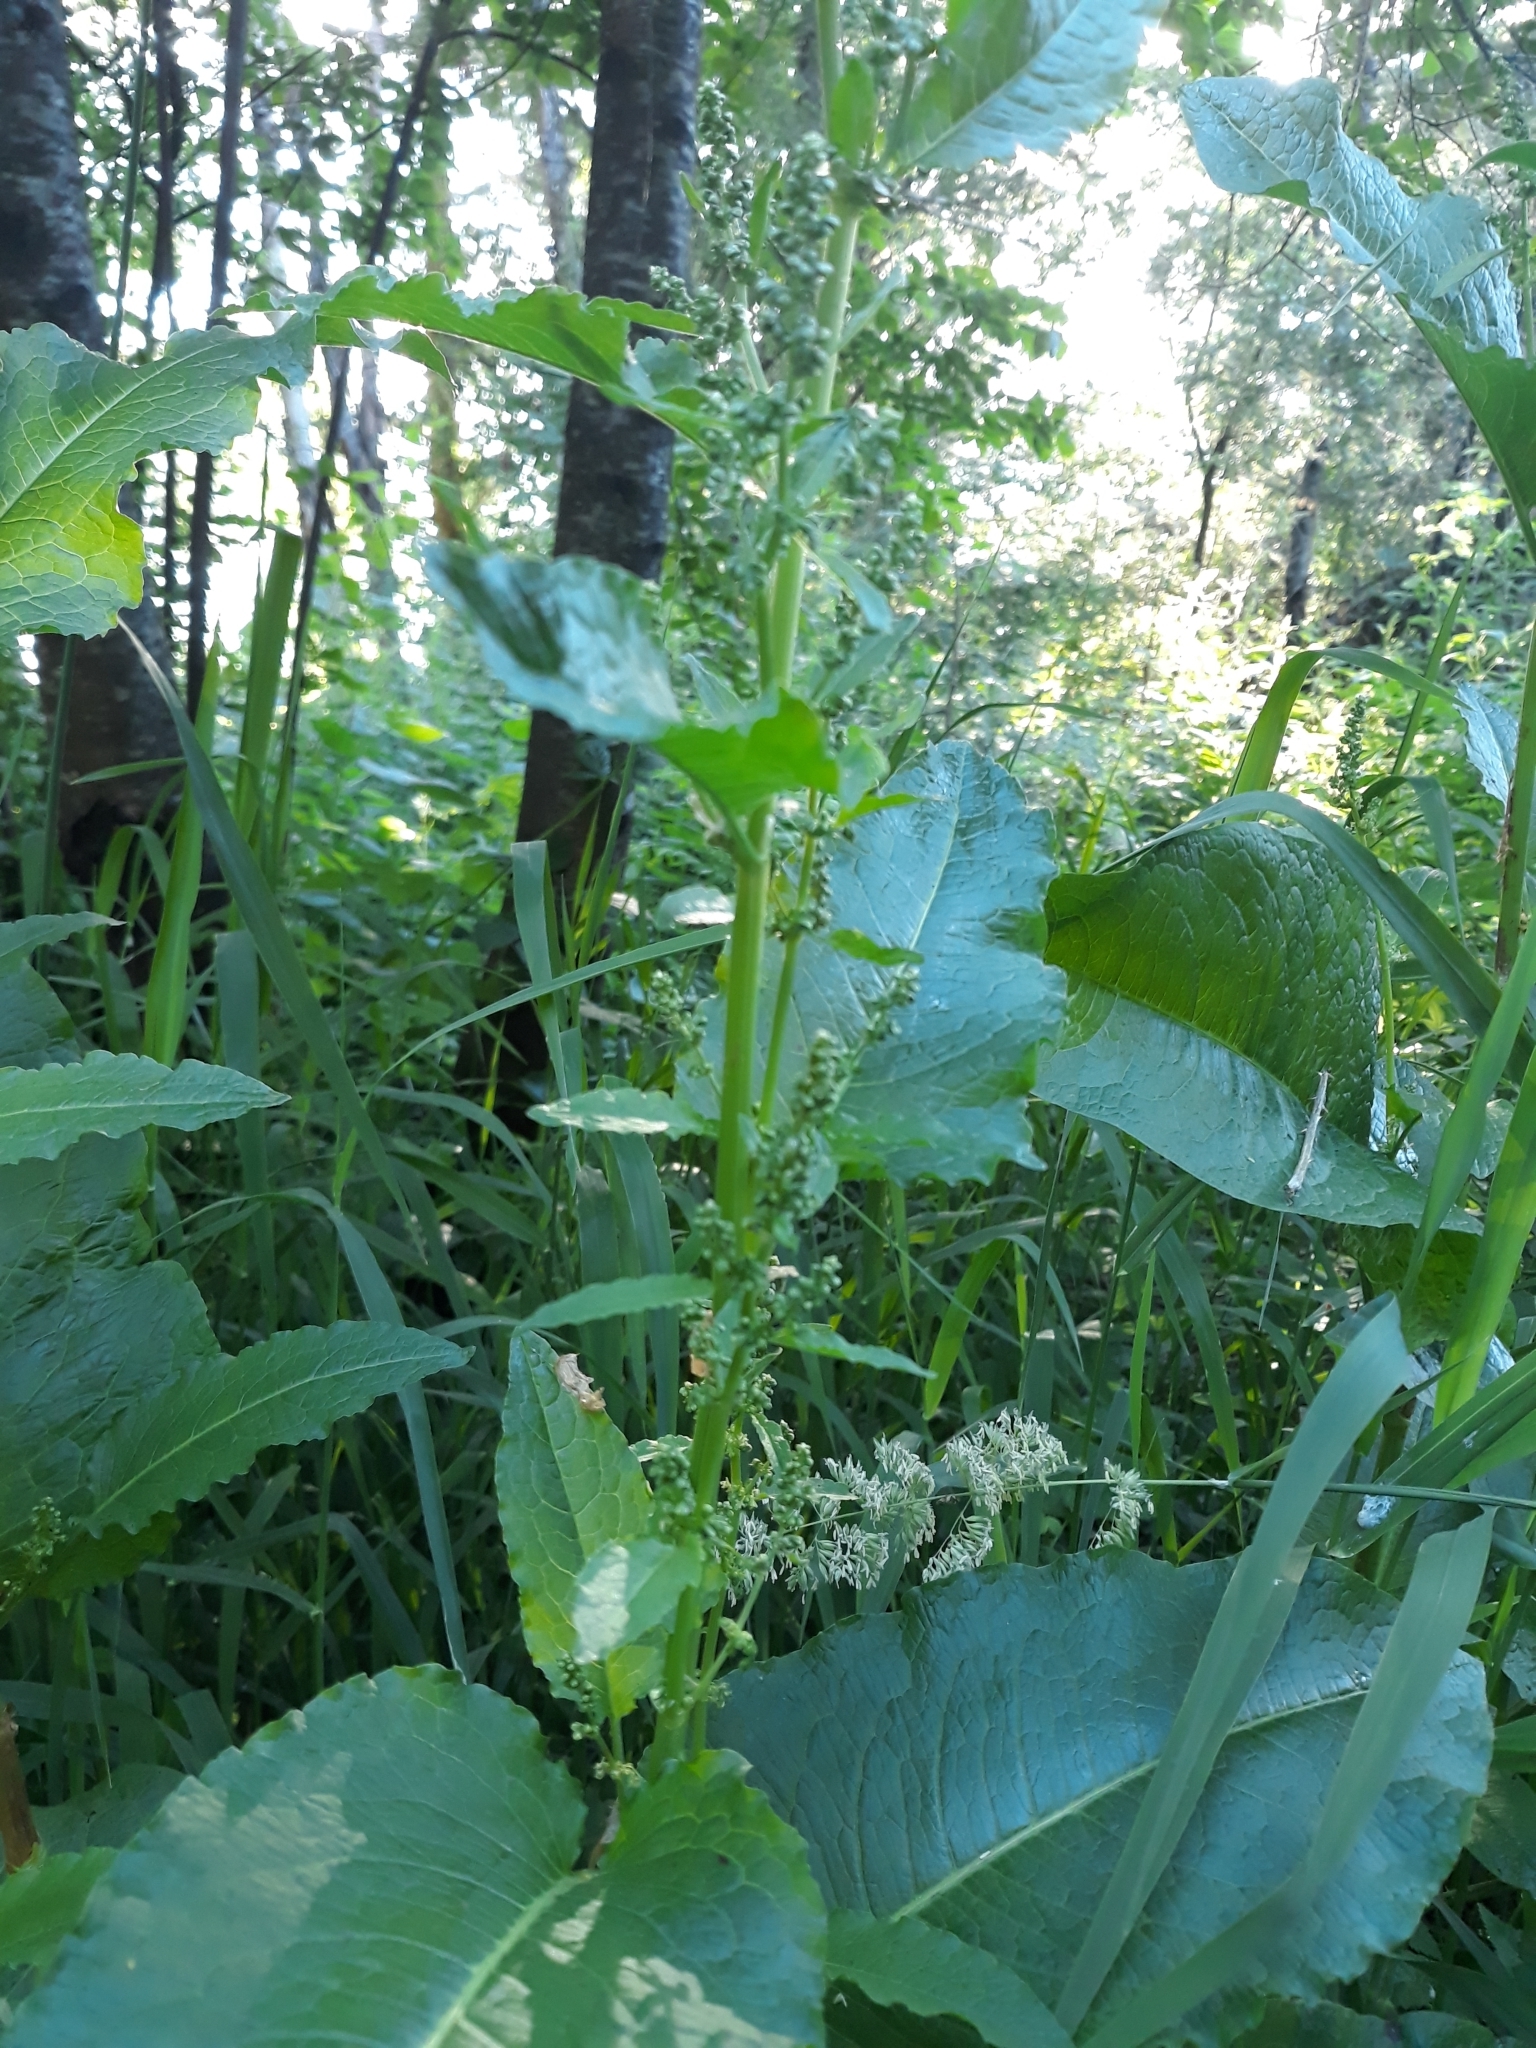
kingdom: Plantae
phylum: Tracheophyta
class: Magnoliopsida
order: Caryophyllales
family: Polygonaceae
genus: Rumex
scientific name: Rumex obtusifolius
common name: Bitter dock
